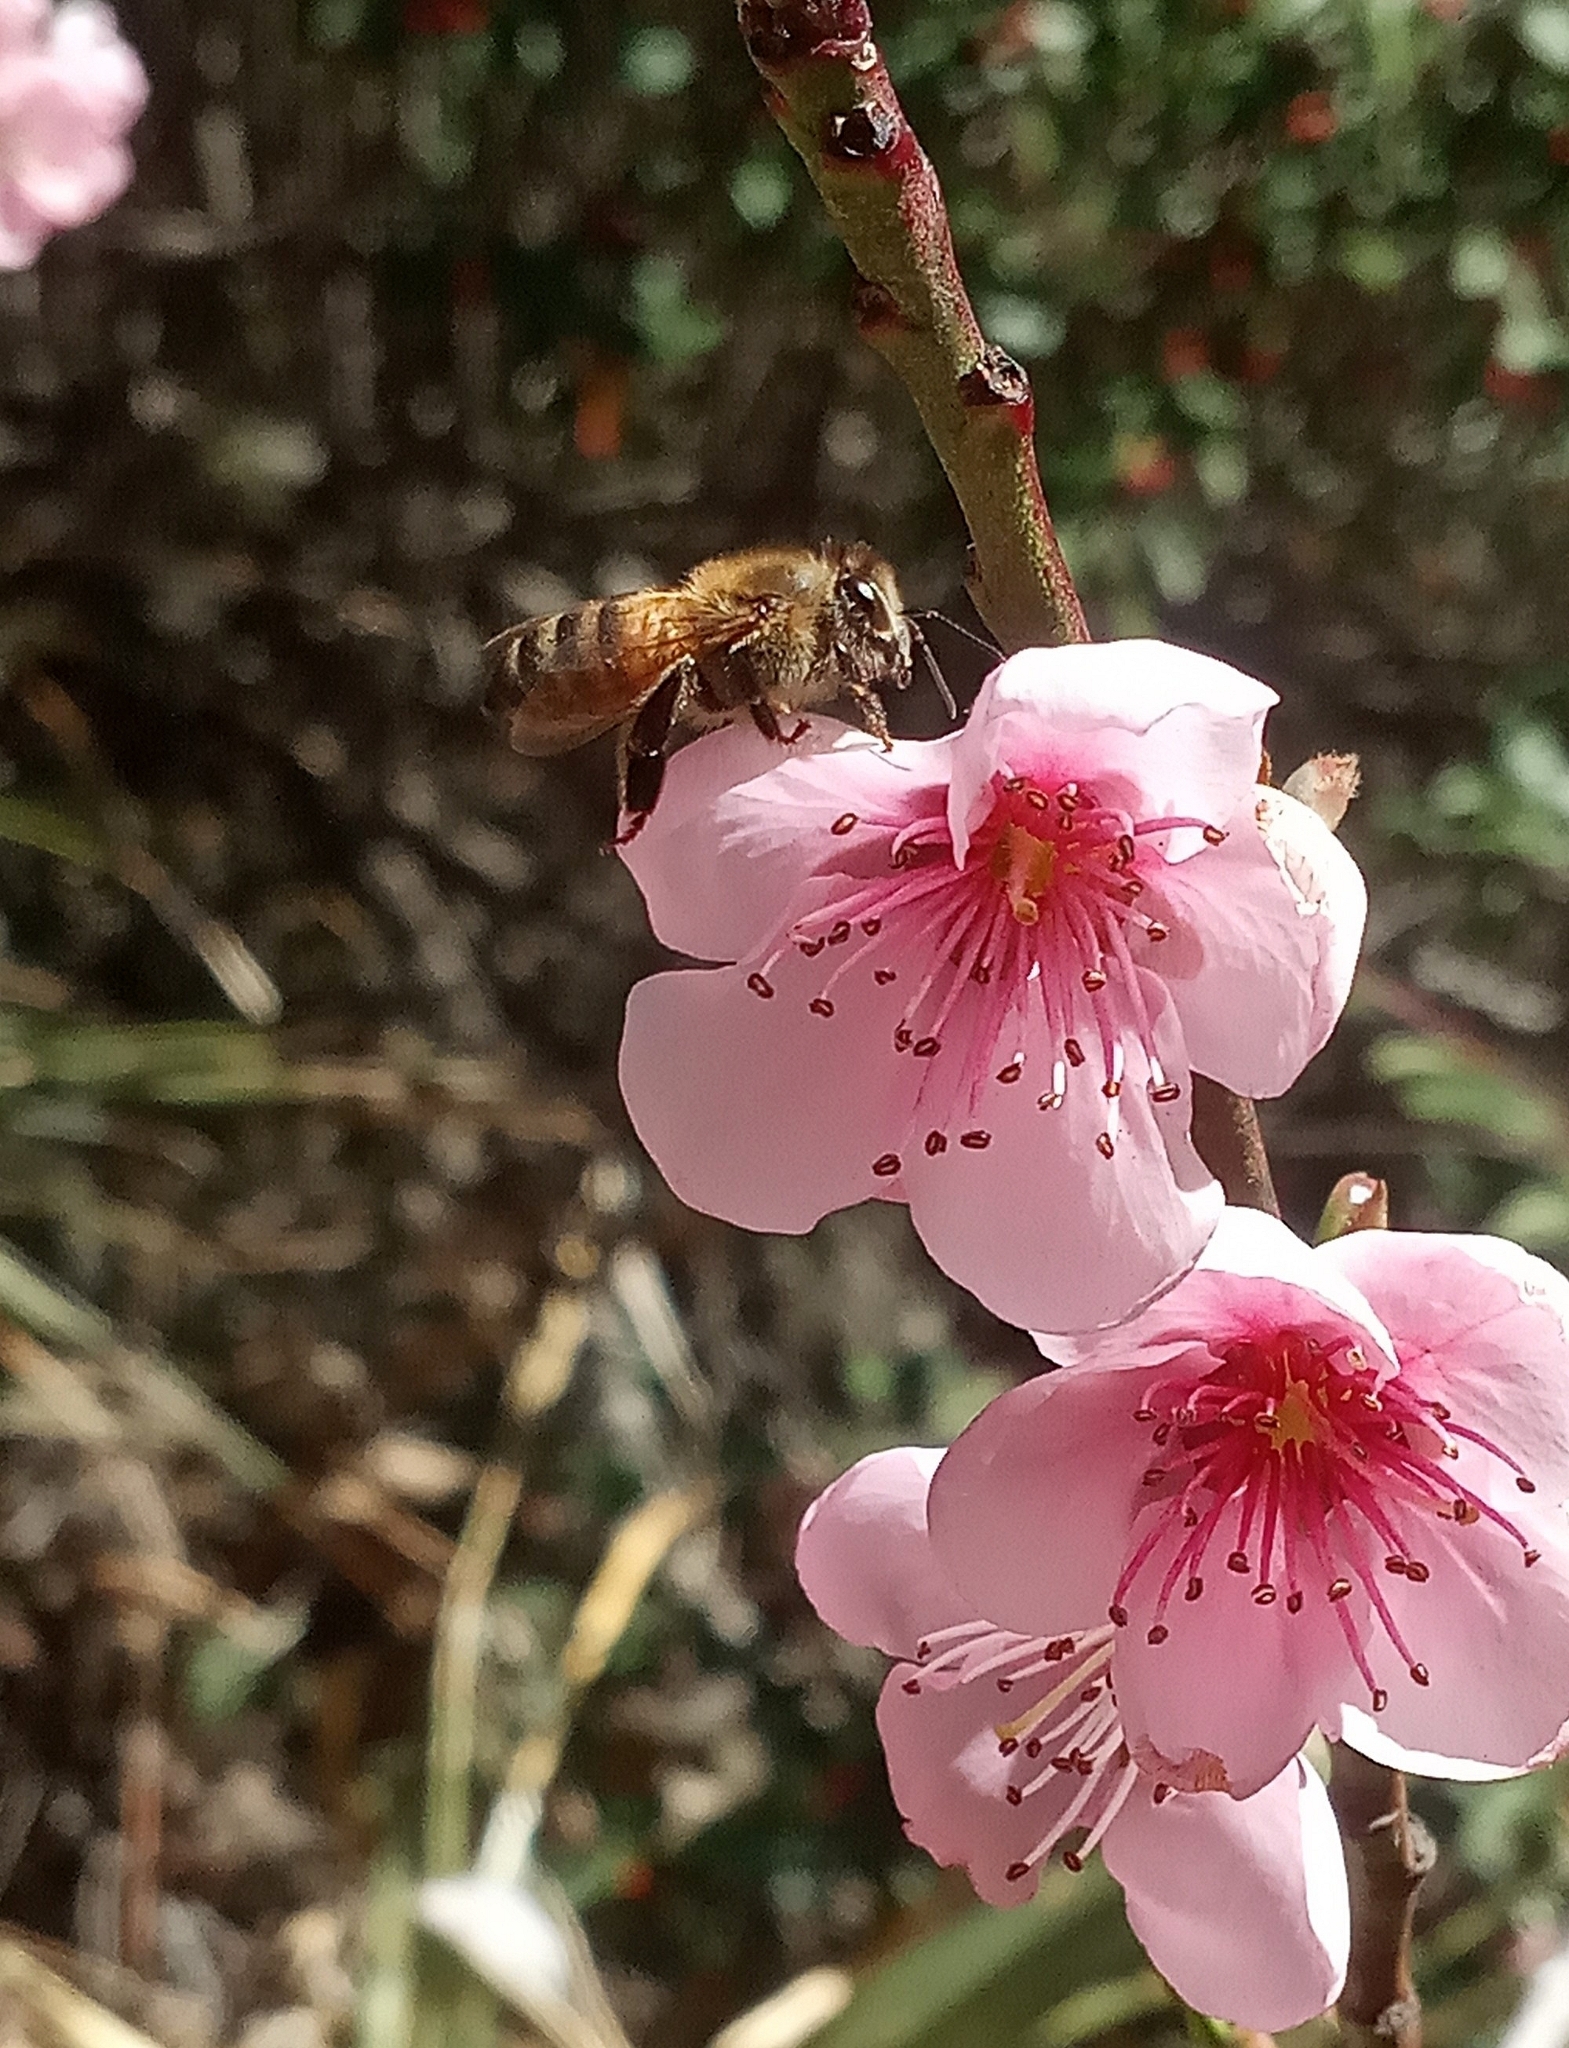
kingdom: Animalia
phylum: Arthropoda
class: Insecta
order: Hymenoptera
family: Apidae
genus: Apis
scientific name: Apis mellifera
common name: Honey bee
